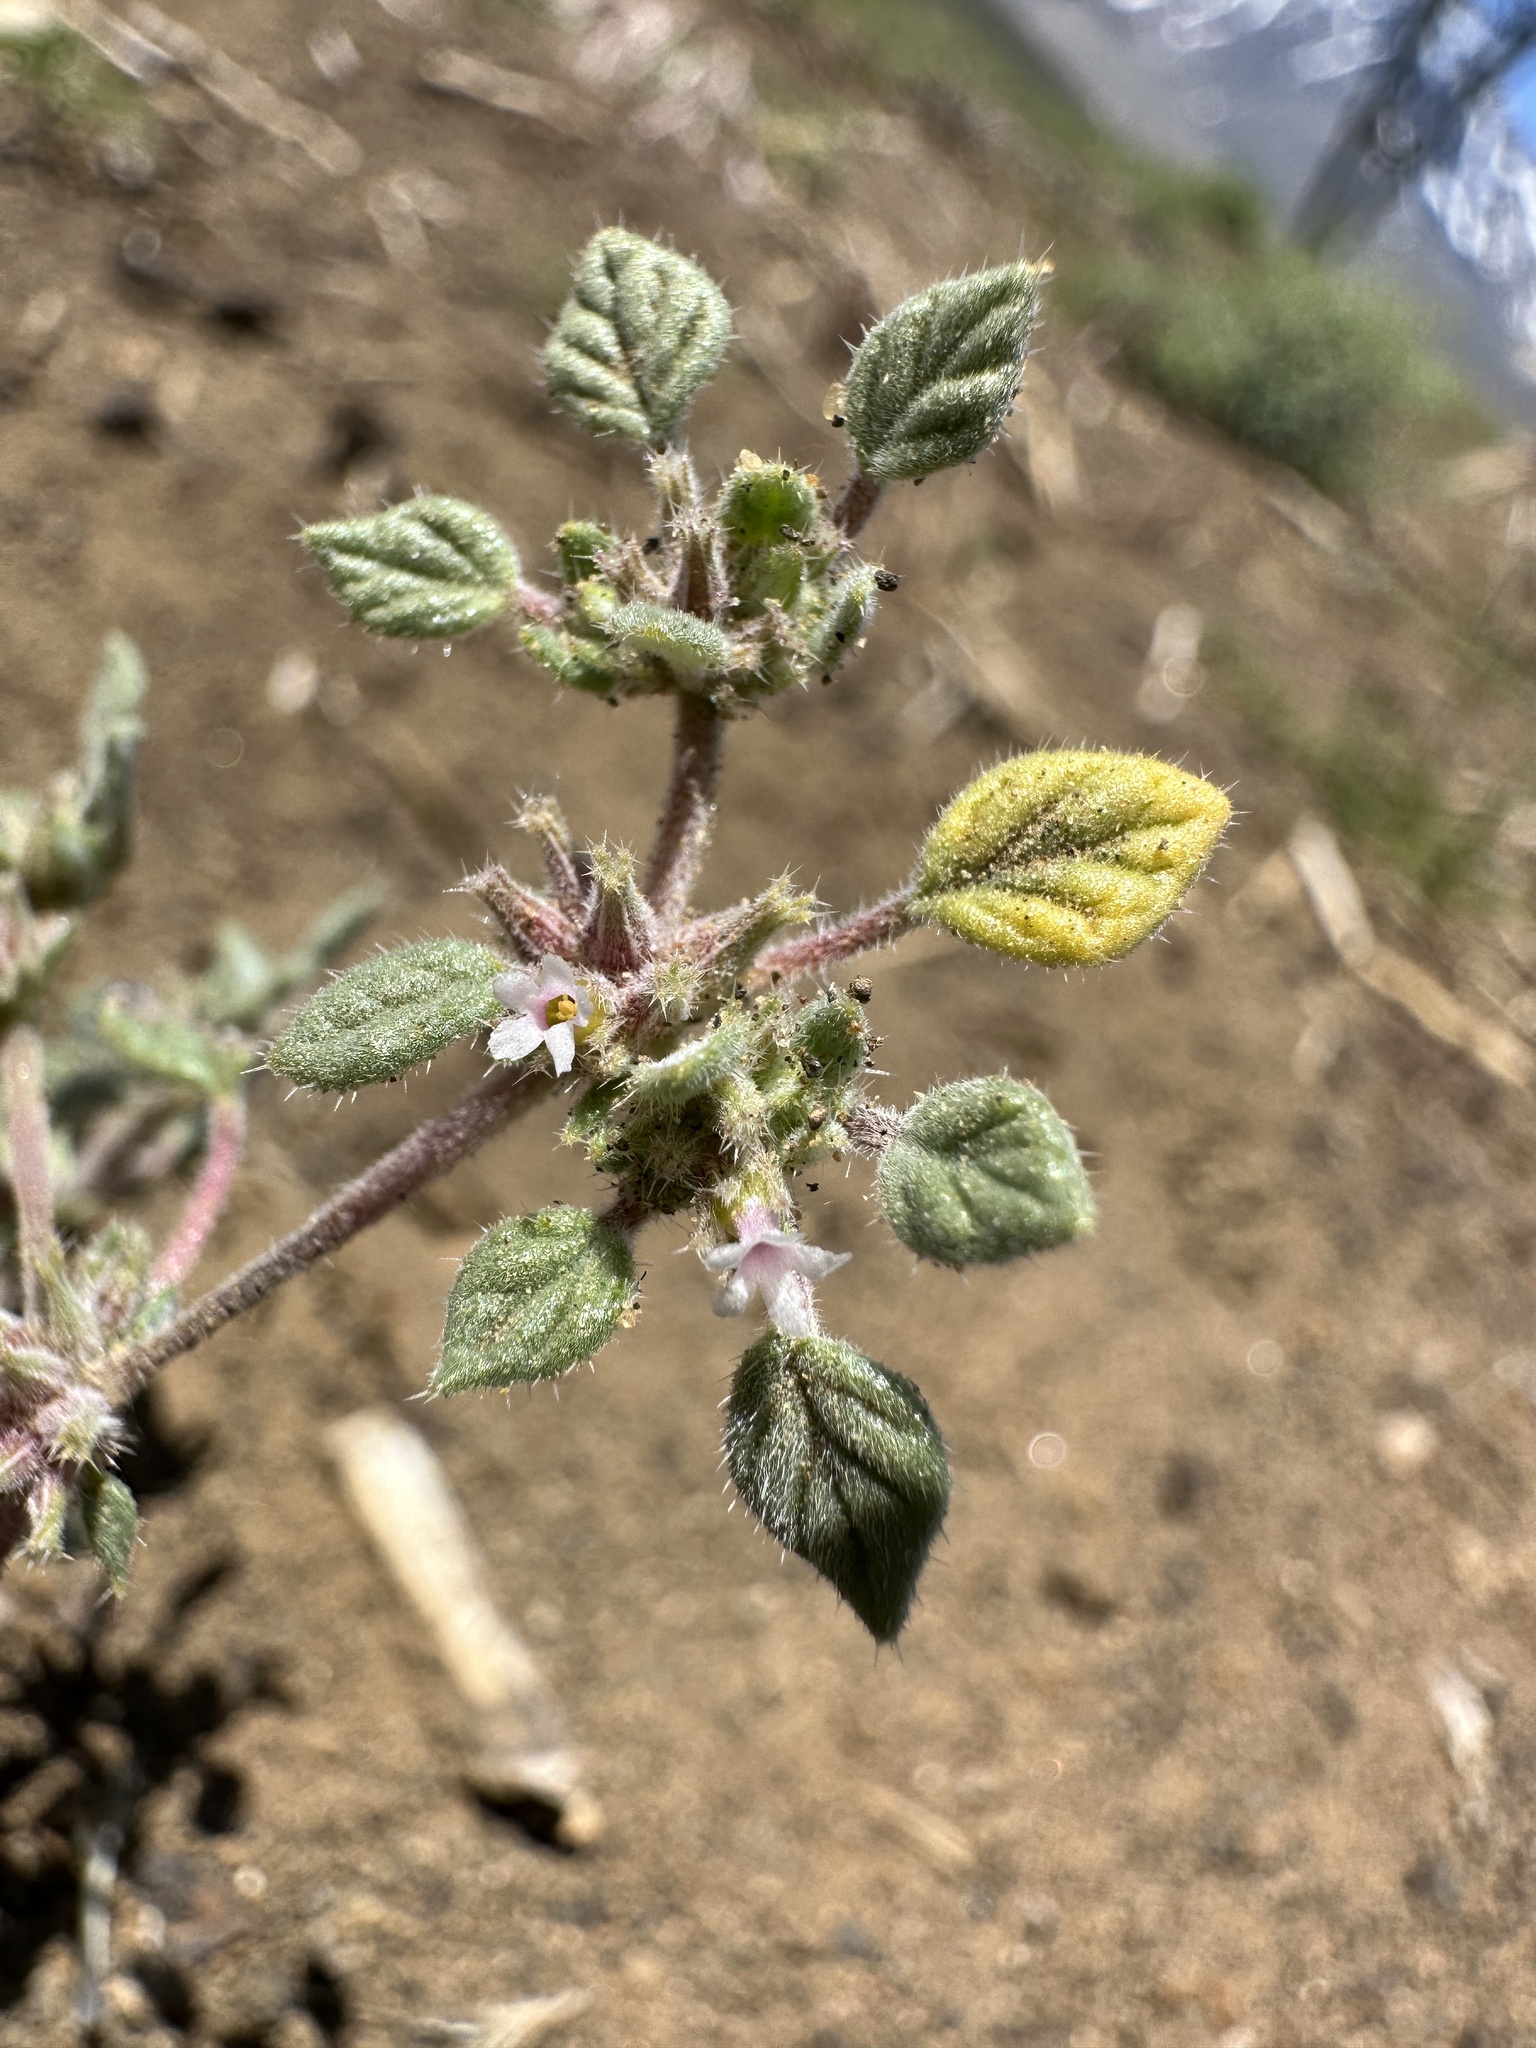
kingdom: Plantae
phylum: Tracheophyta
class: Magnoliopsida
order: Boraginales
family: Ehretiaceae
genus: Tiquilia
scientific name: Tiquilia nuttallii
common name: Rosette tiquilia
